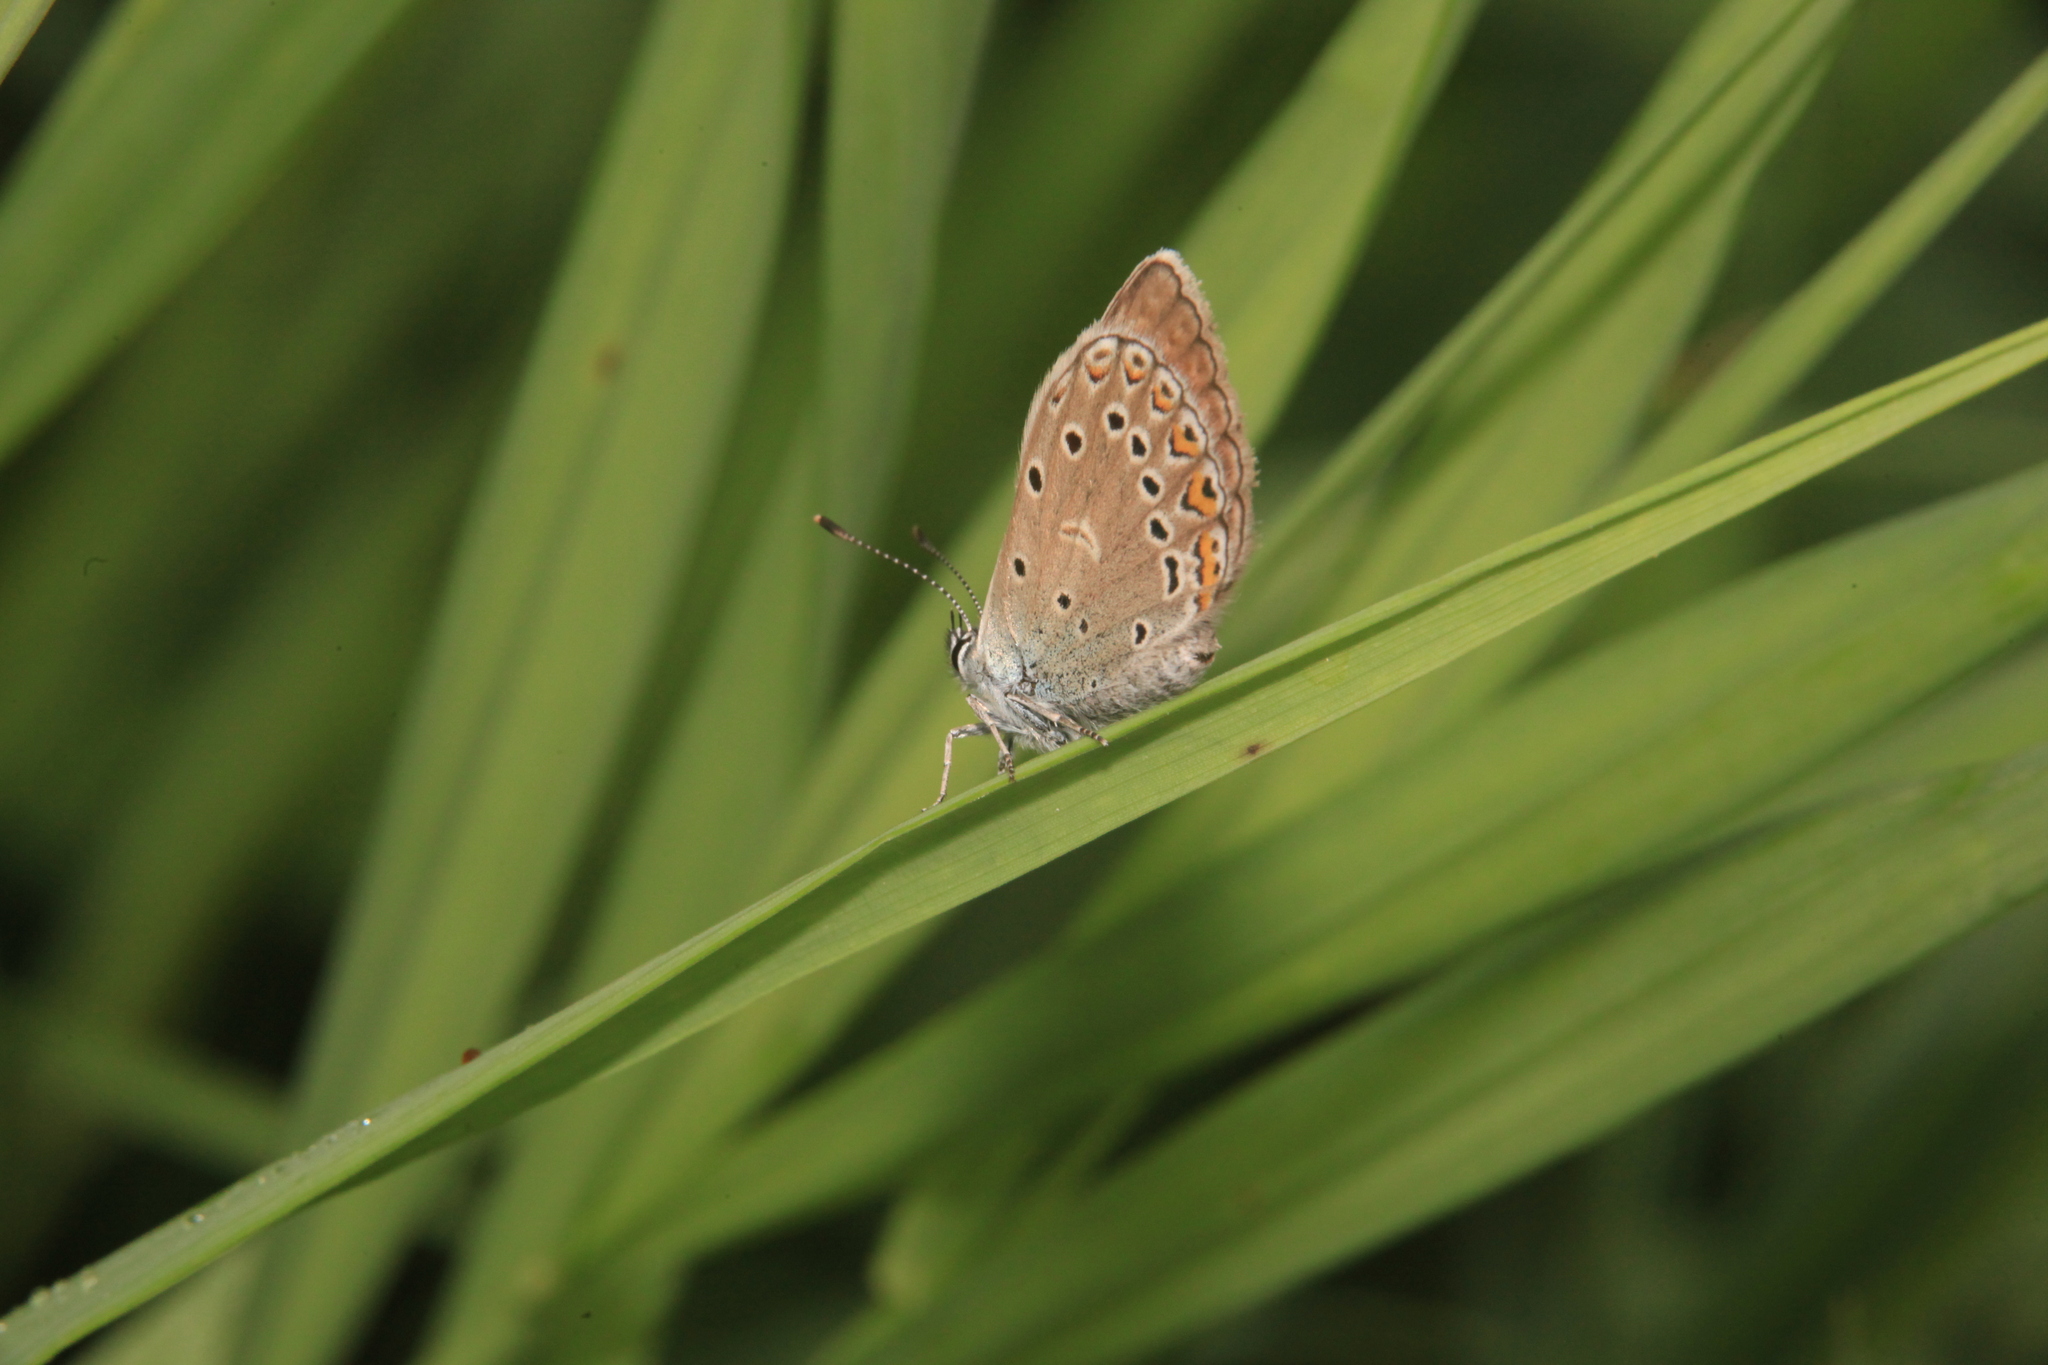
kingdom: Animalia
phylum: Arthropoda
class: Insecta
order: Lepidoptera
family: Lycaenidae
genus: Plebejus
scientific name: Plebejus amanda
